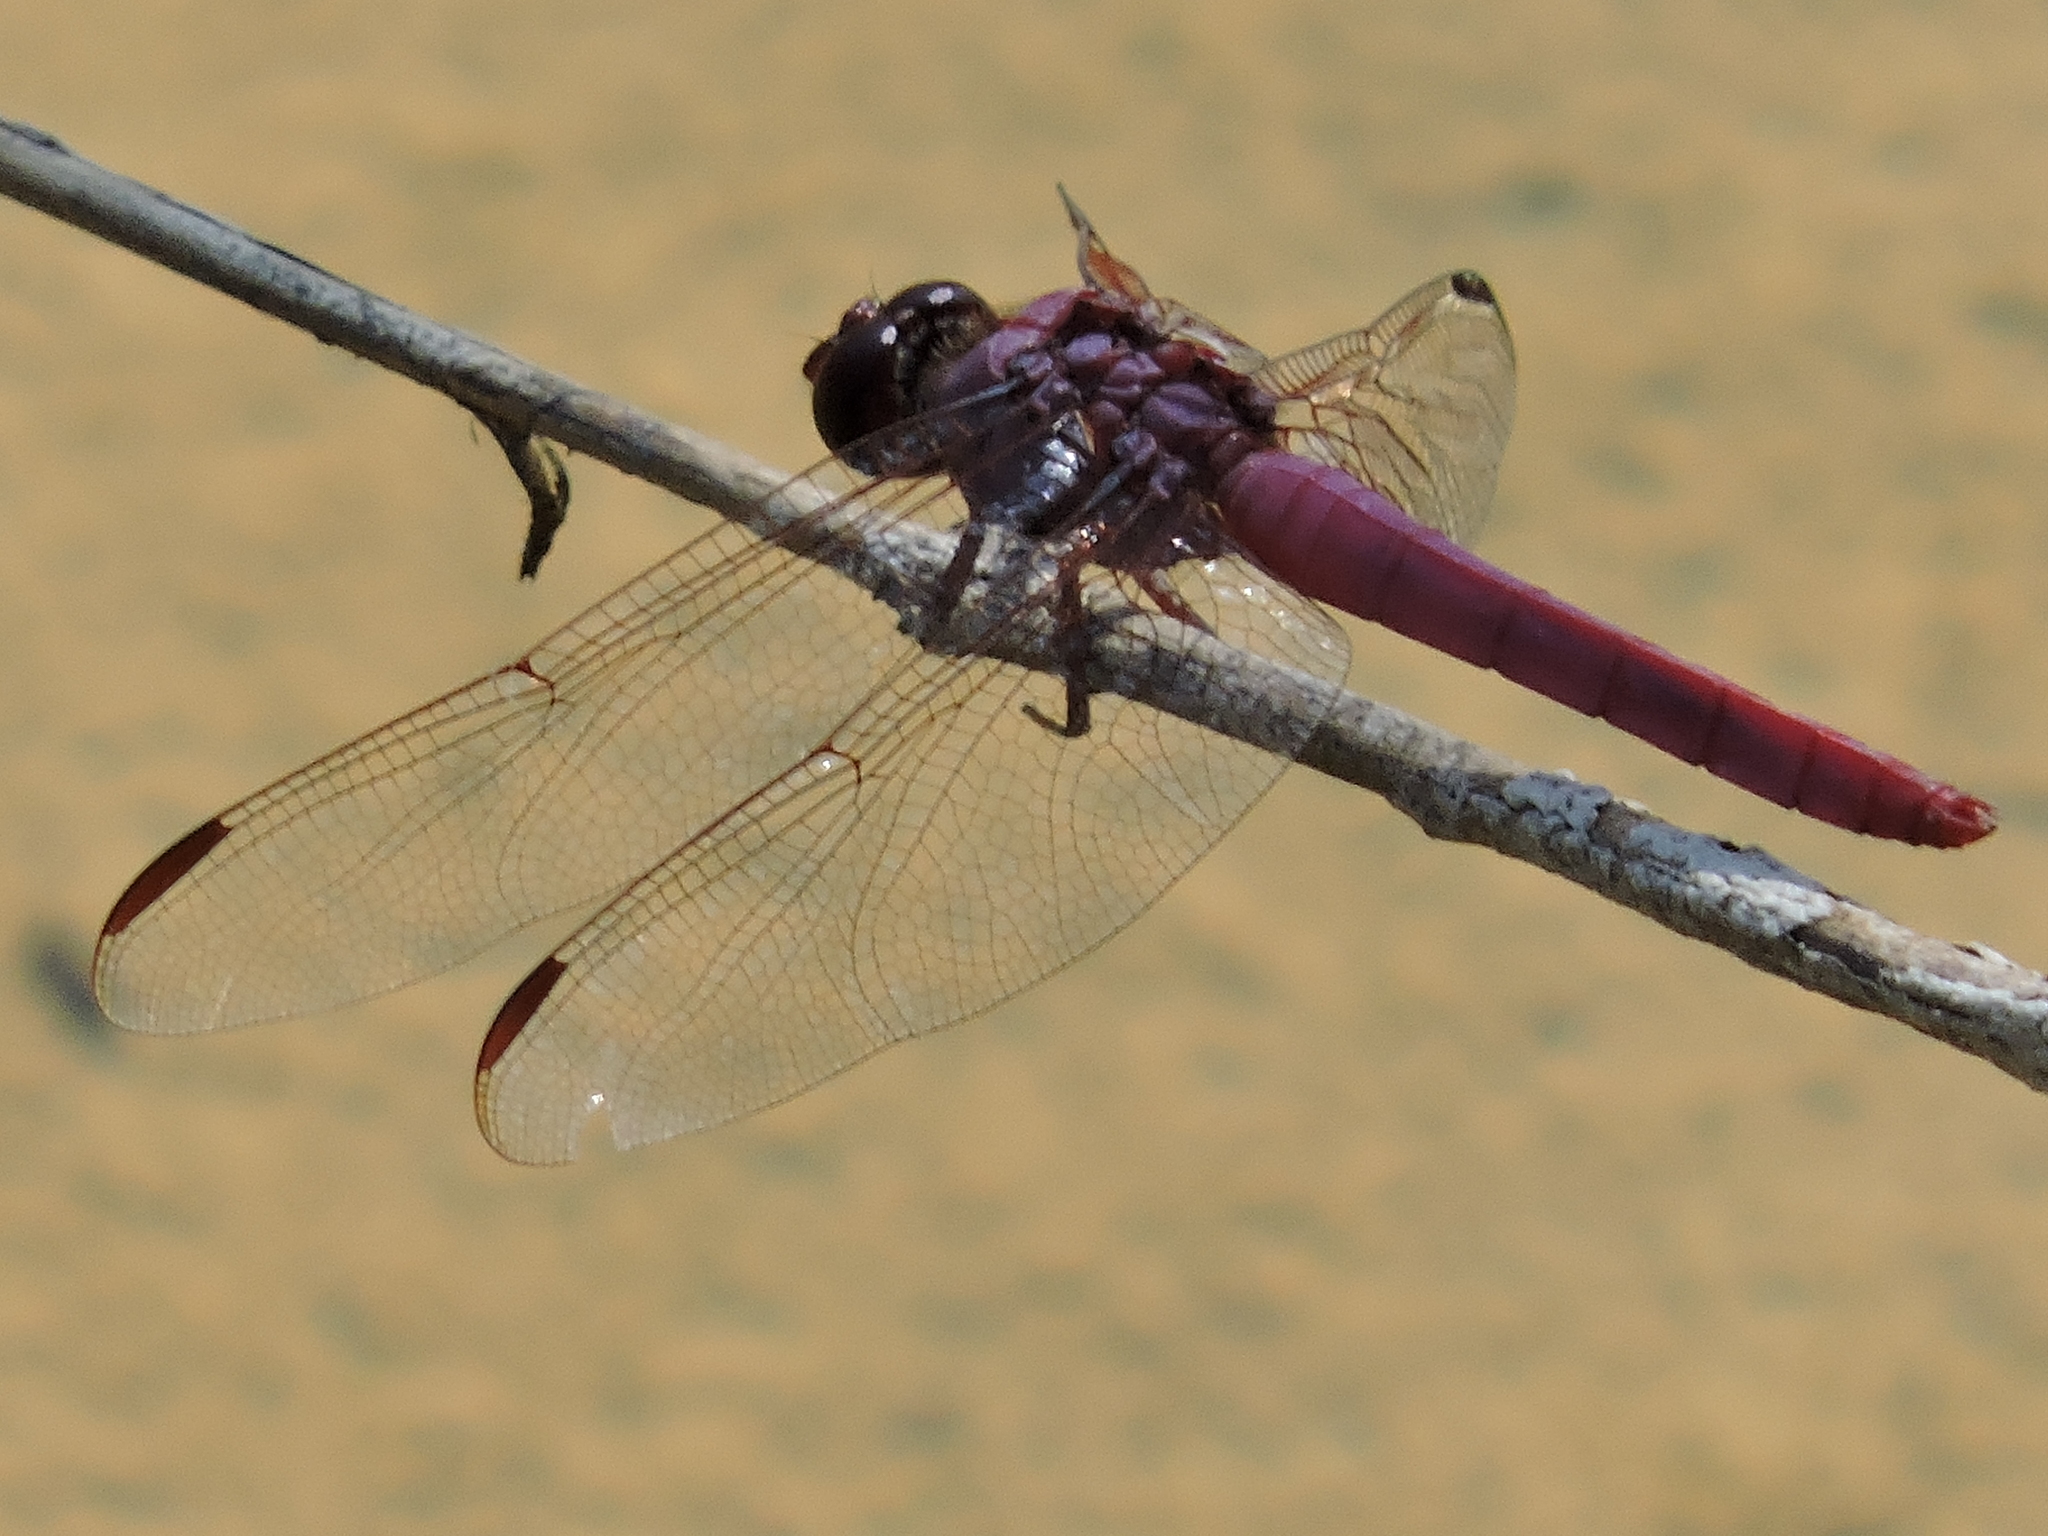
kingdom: Animalia
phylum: Arthropoda
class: Insecta
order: Odonata
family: Libellulidae
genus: Orthemis
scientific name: Orthemis ferruginea
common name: Roseate skimmer
